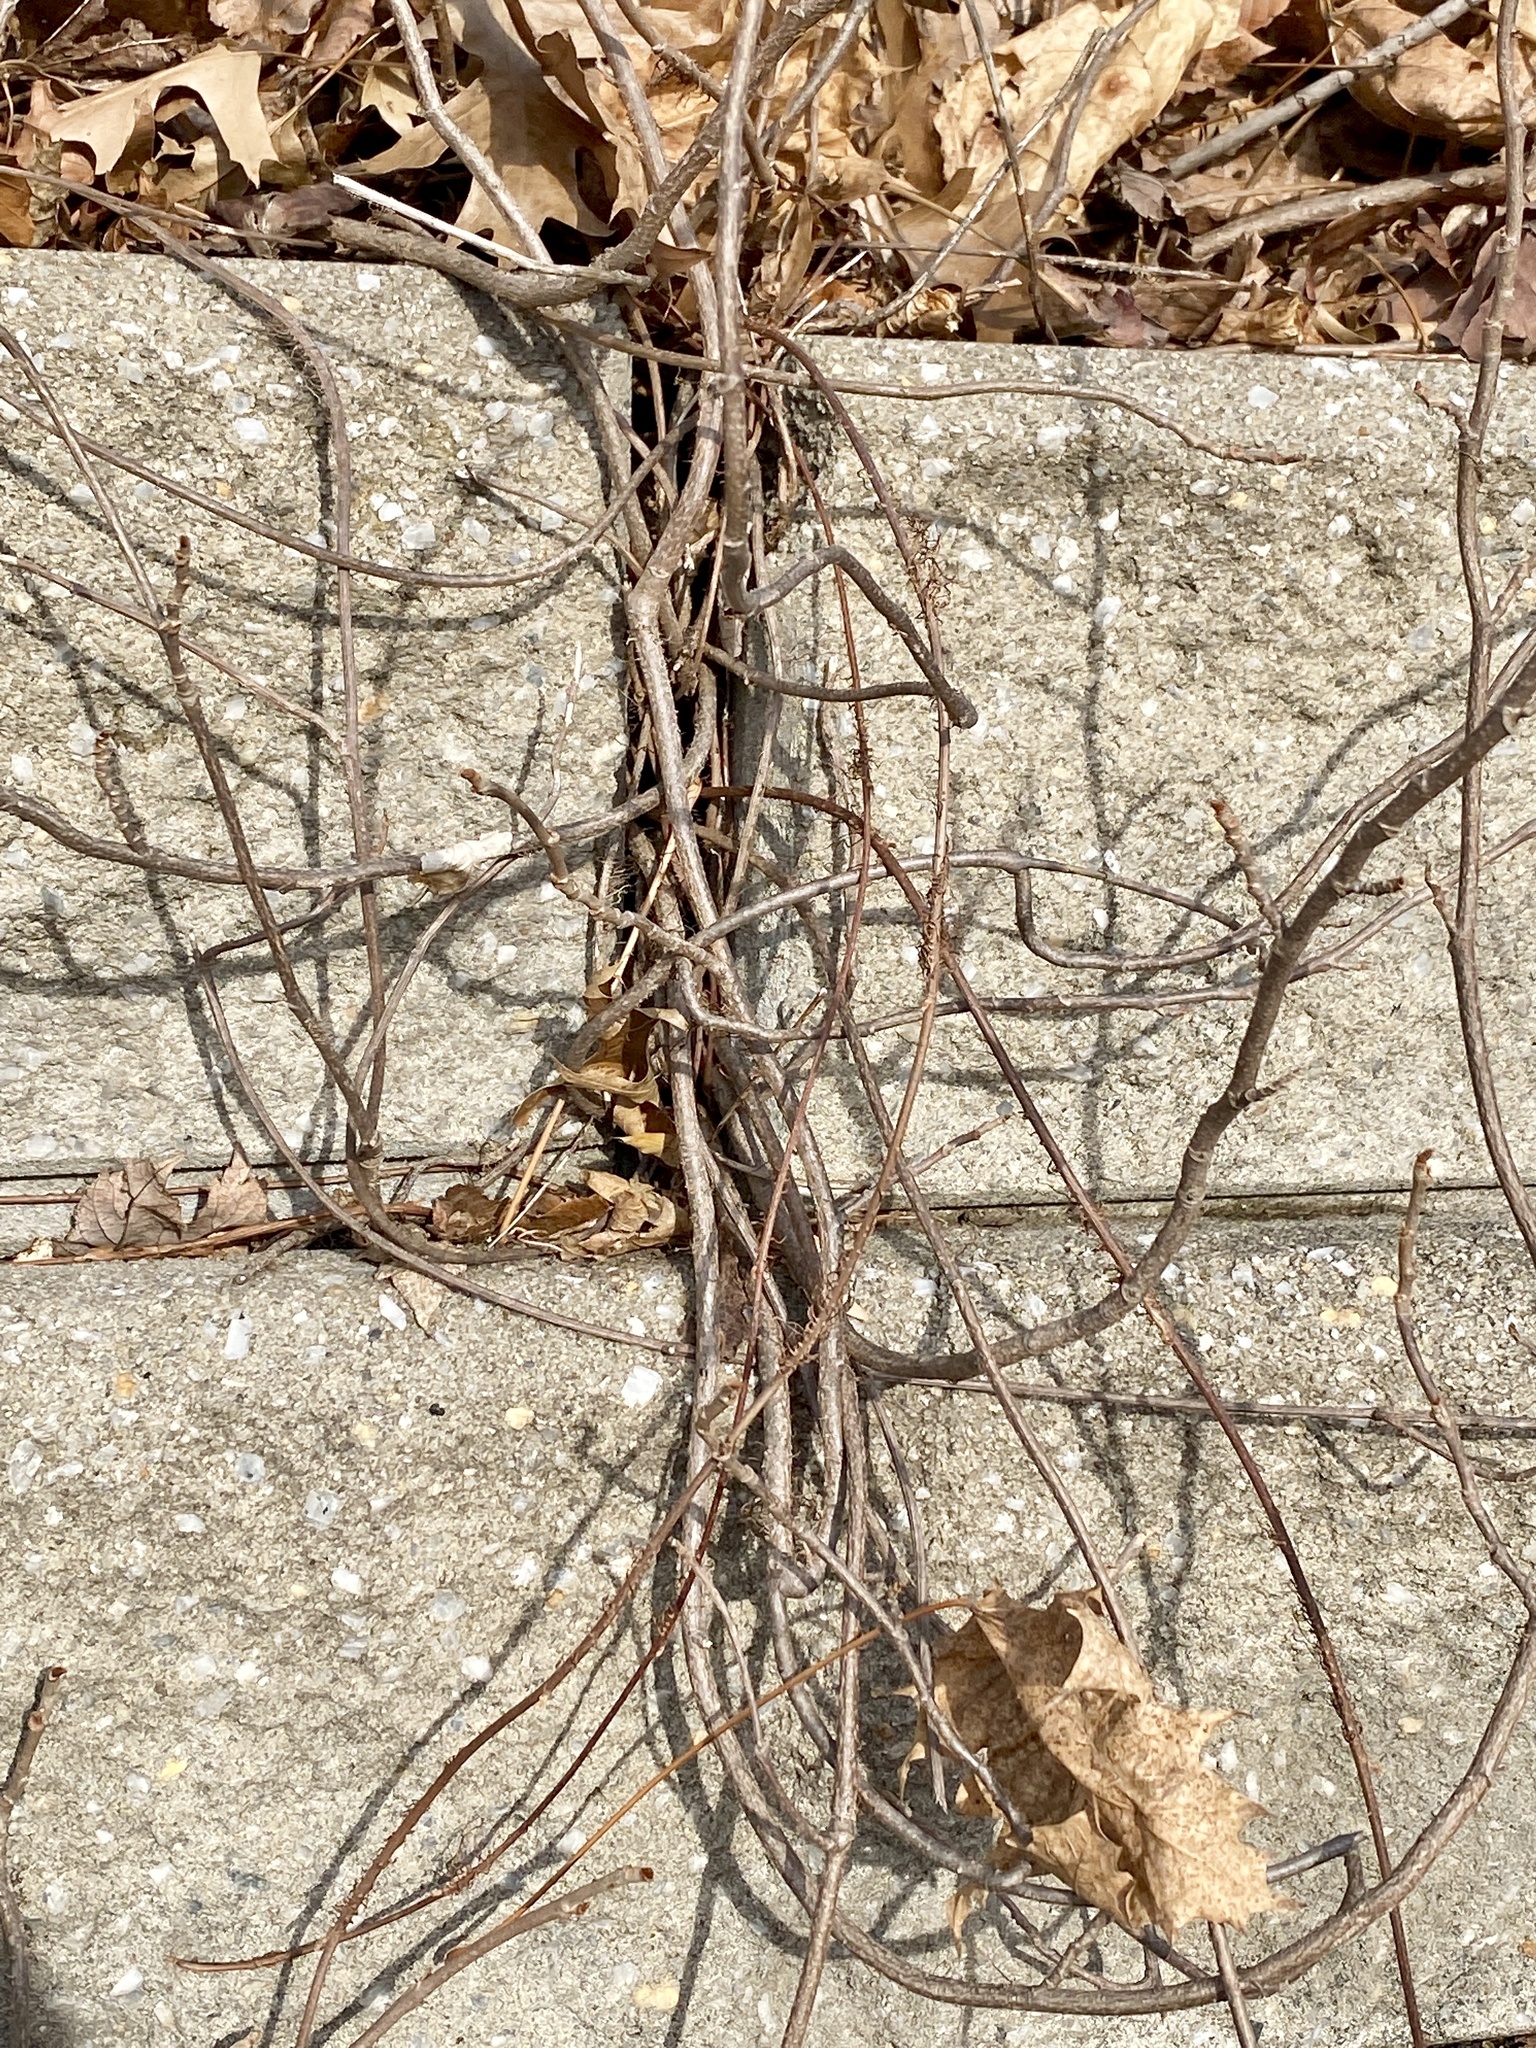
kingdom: Plantae
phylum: Tracheophyta
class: Magnoliopsida
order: Sapindales
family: Anacardiaceae
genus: Toxicodendron
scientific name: Toxicodendron radicans
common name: Poison ivy
